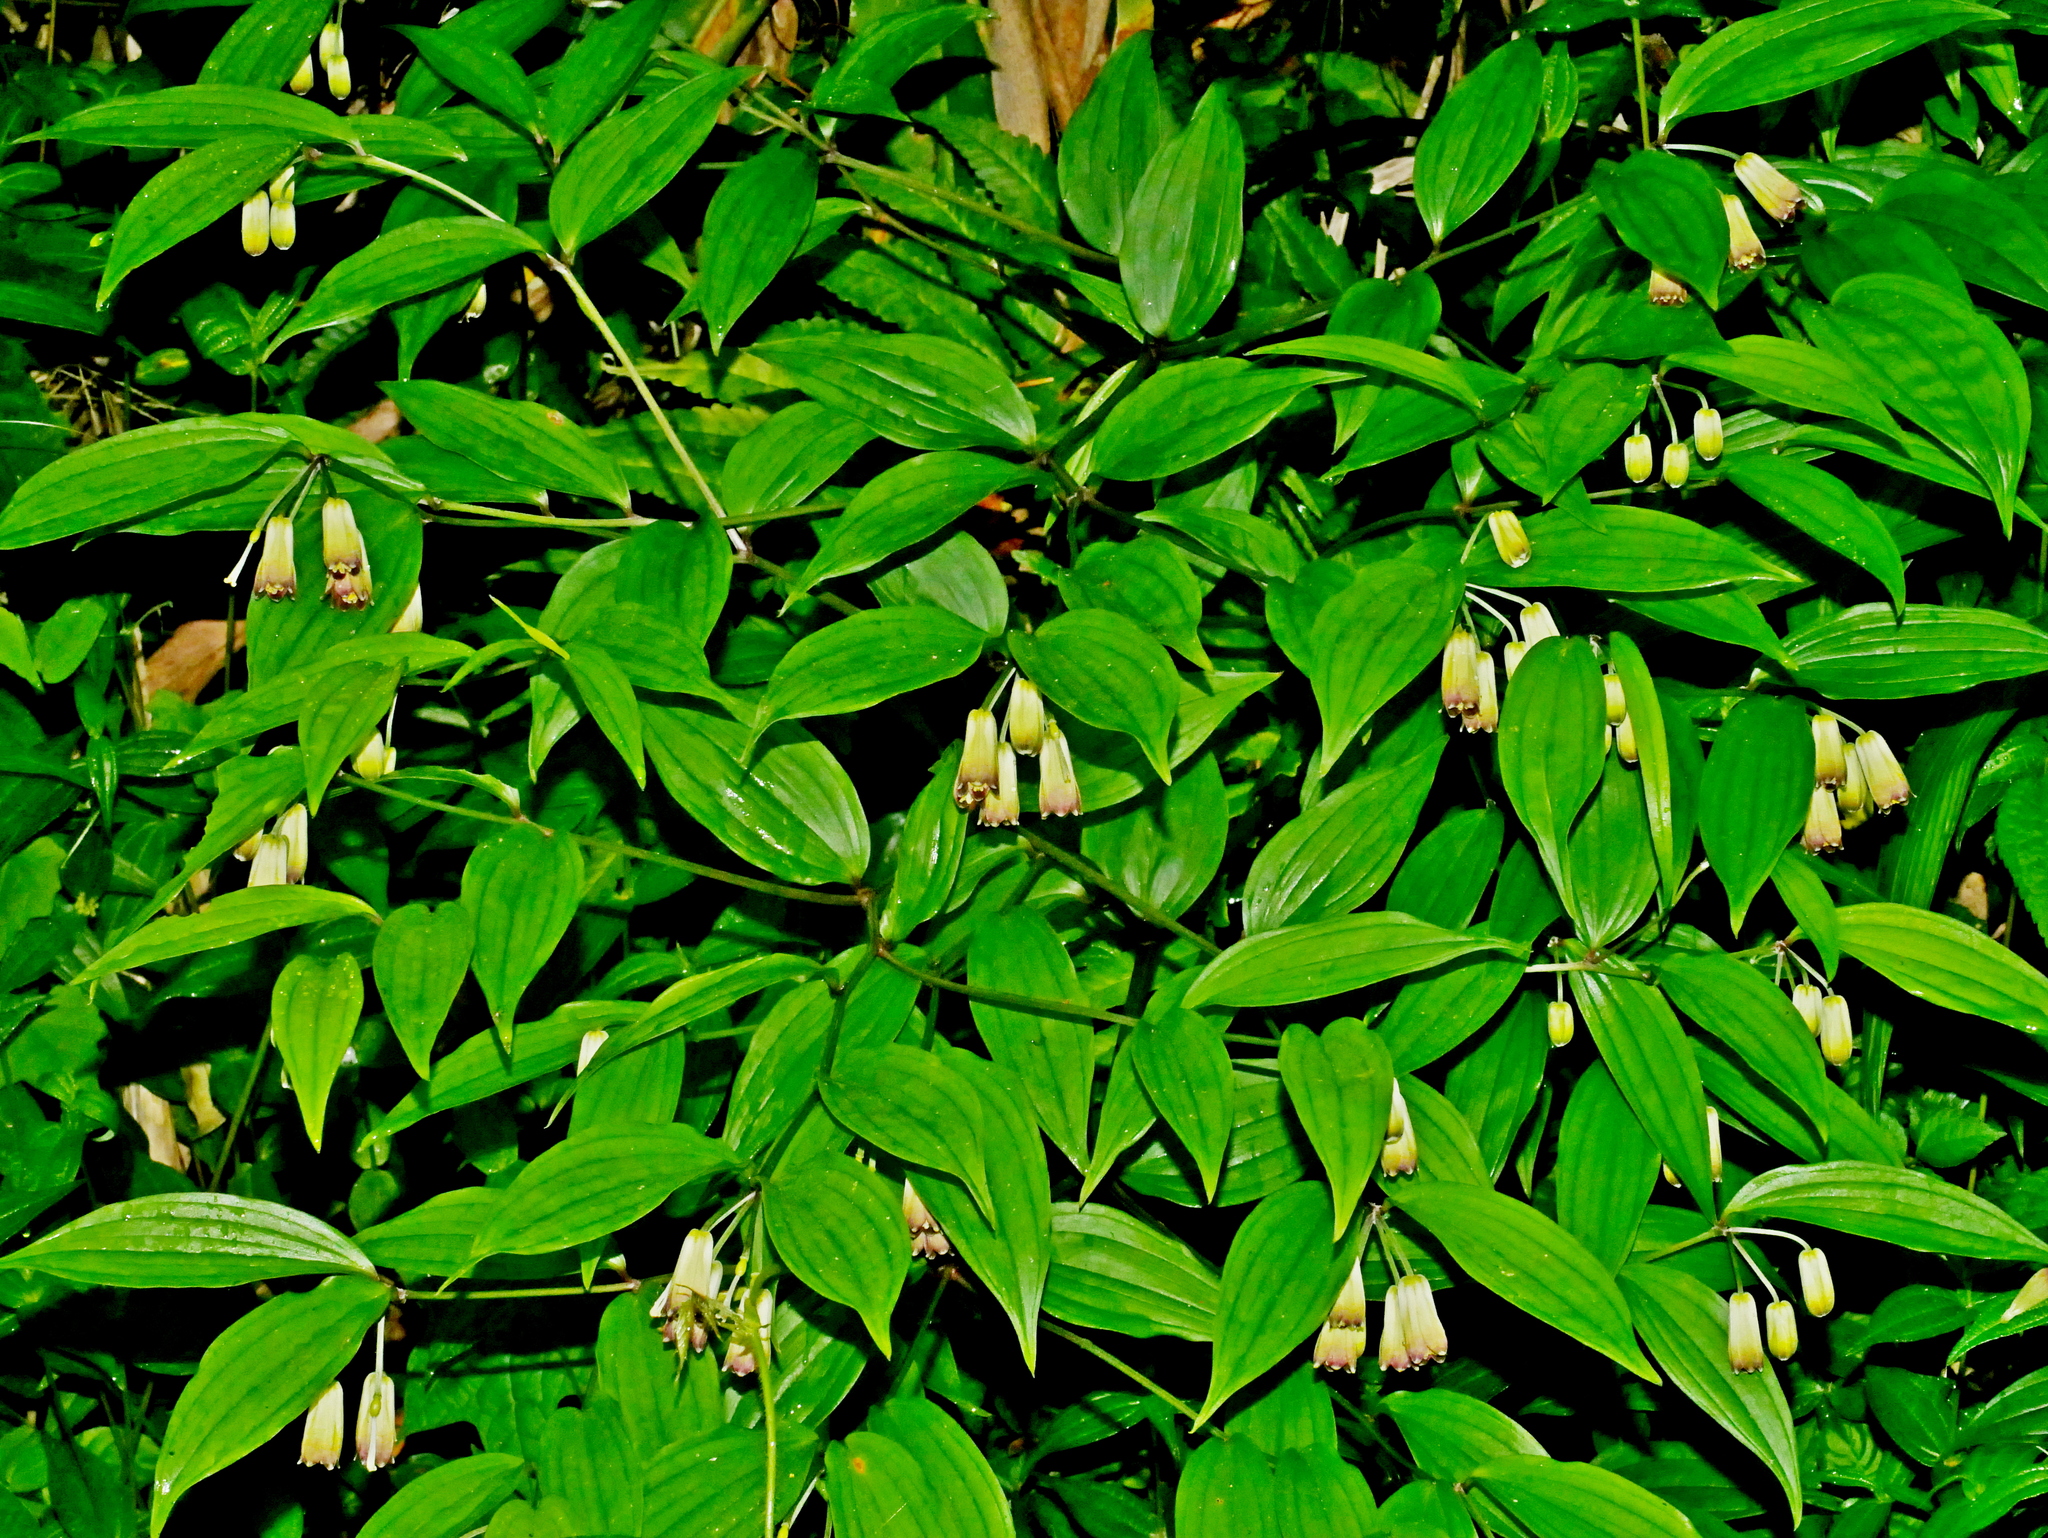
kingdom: Plantae
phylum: Tracheophyta
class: Liliopsida
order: Liliales
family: Colchicaceae
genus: Disporum
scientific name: Disporum kawakamii
